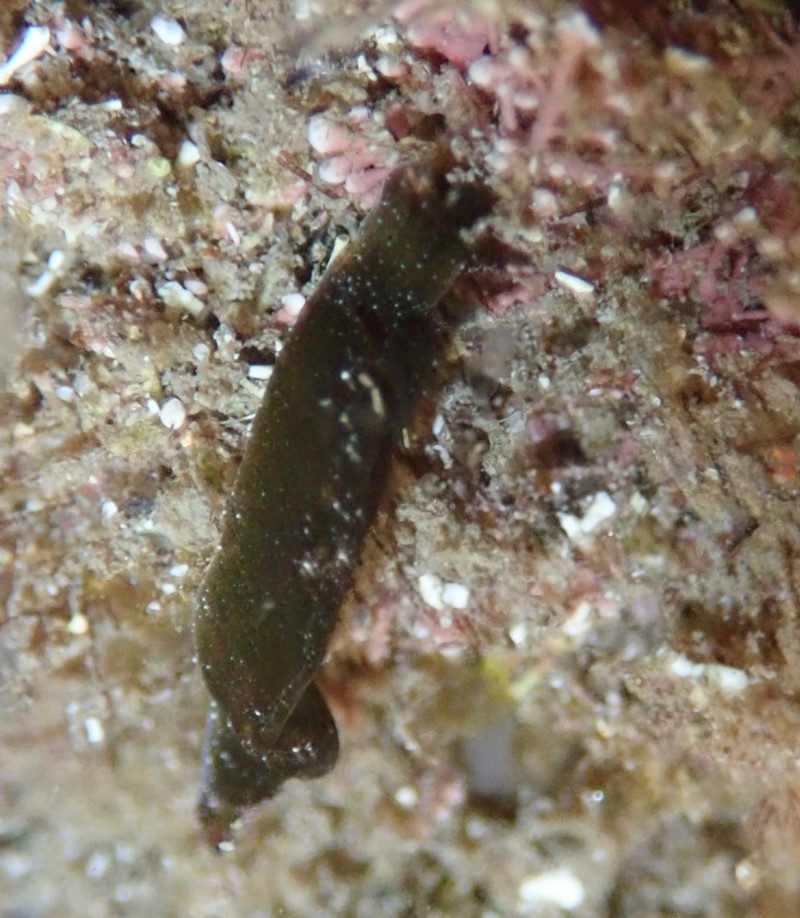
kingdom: Animalia
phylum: Mollusca
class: Gastropoda
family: Plakobranchidae
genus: Elysia
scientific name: Elysia maoria
